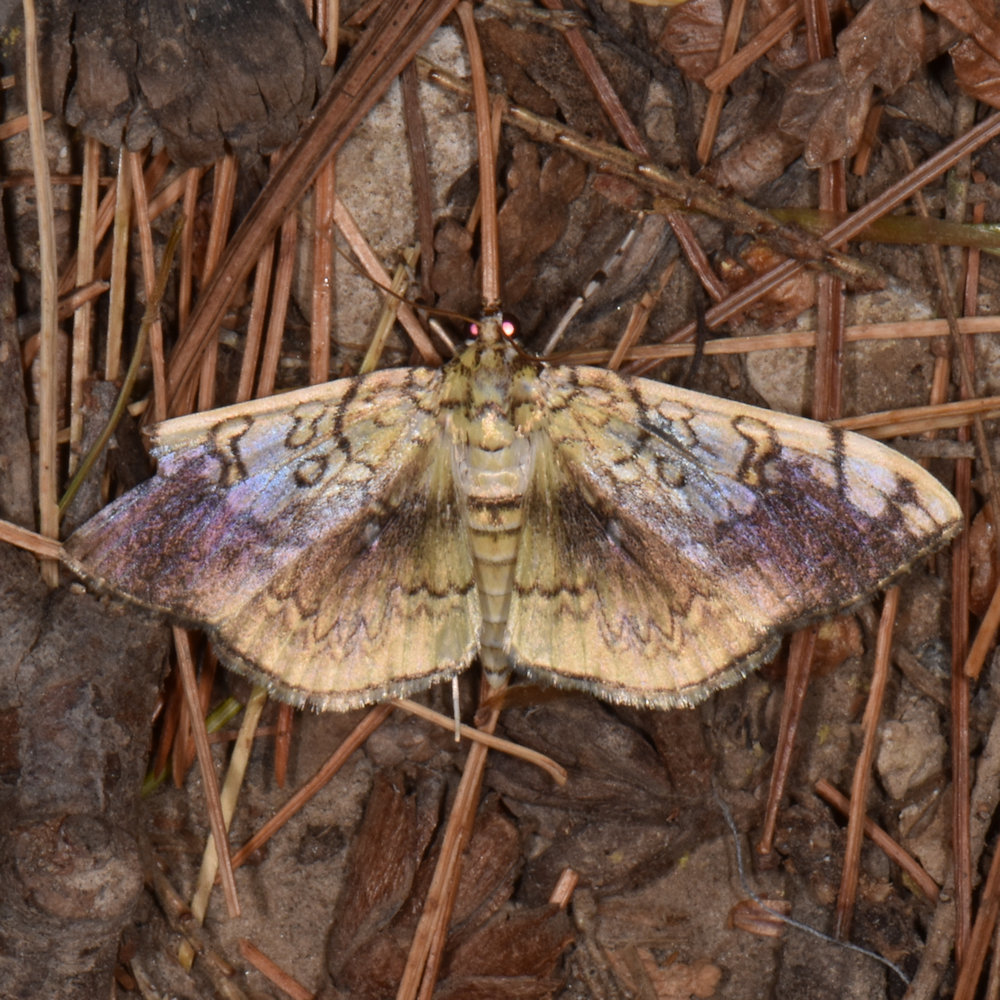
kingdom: Animalia
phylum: Arthropoda
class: Insecta
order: Lepidoptera
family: Crambidae
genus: Pantographa
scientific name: Pantographa limata
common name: Basswood leafroller moth
